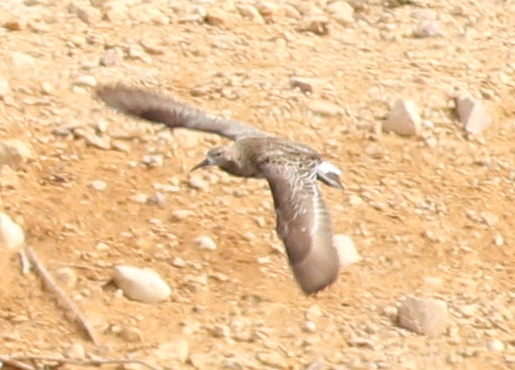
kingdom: Animalia
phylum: Chordata
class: Aves
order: Charadriiformes
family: Scolopacidae
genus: Calidris
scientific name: Calidris pugnax
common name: Ruff
